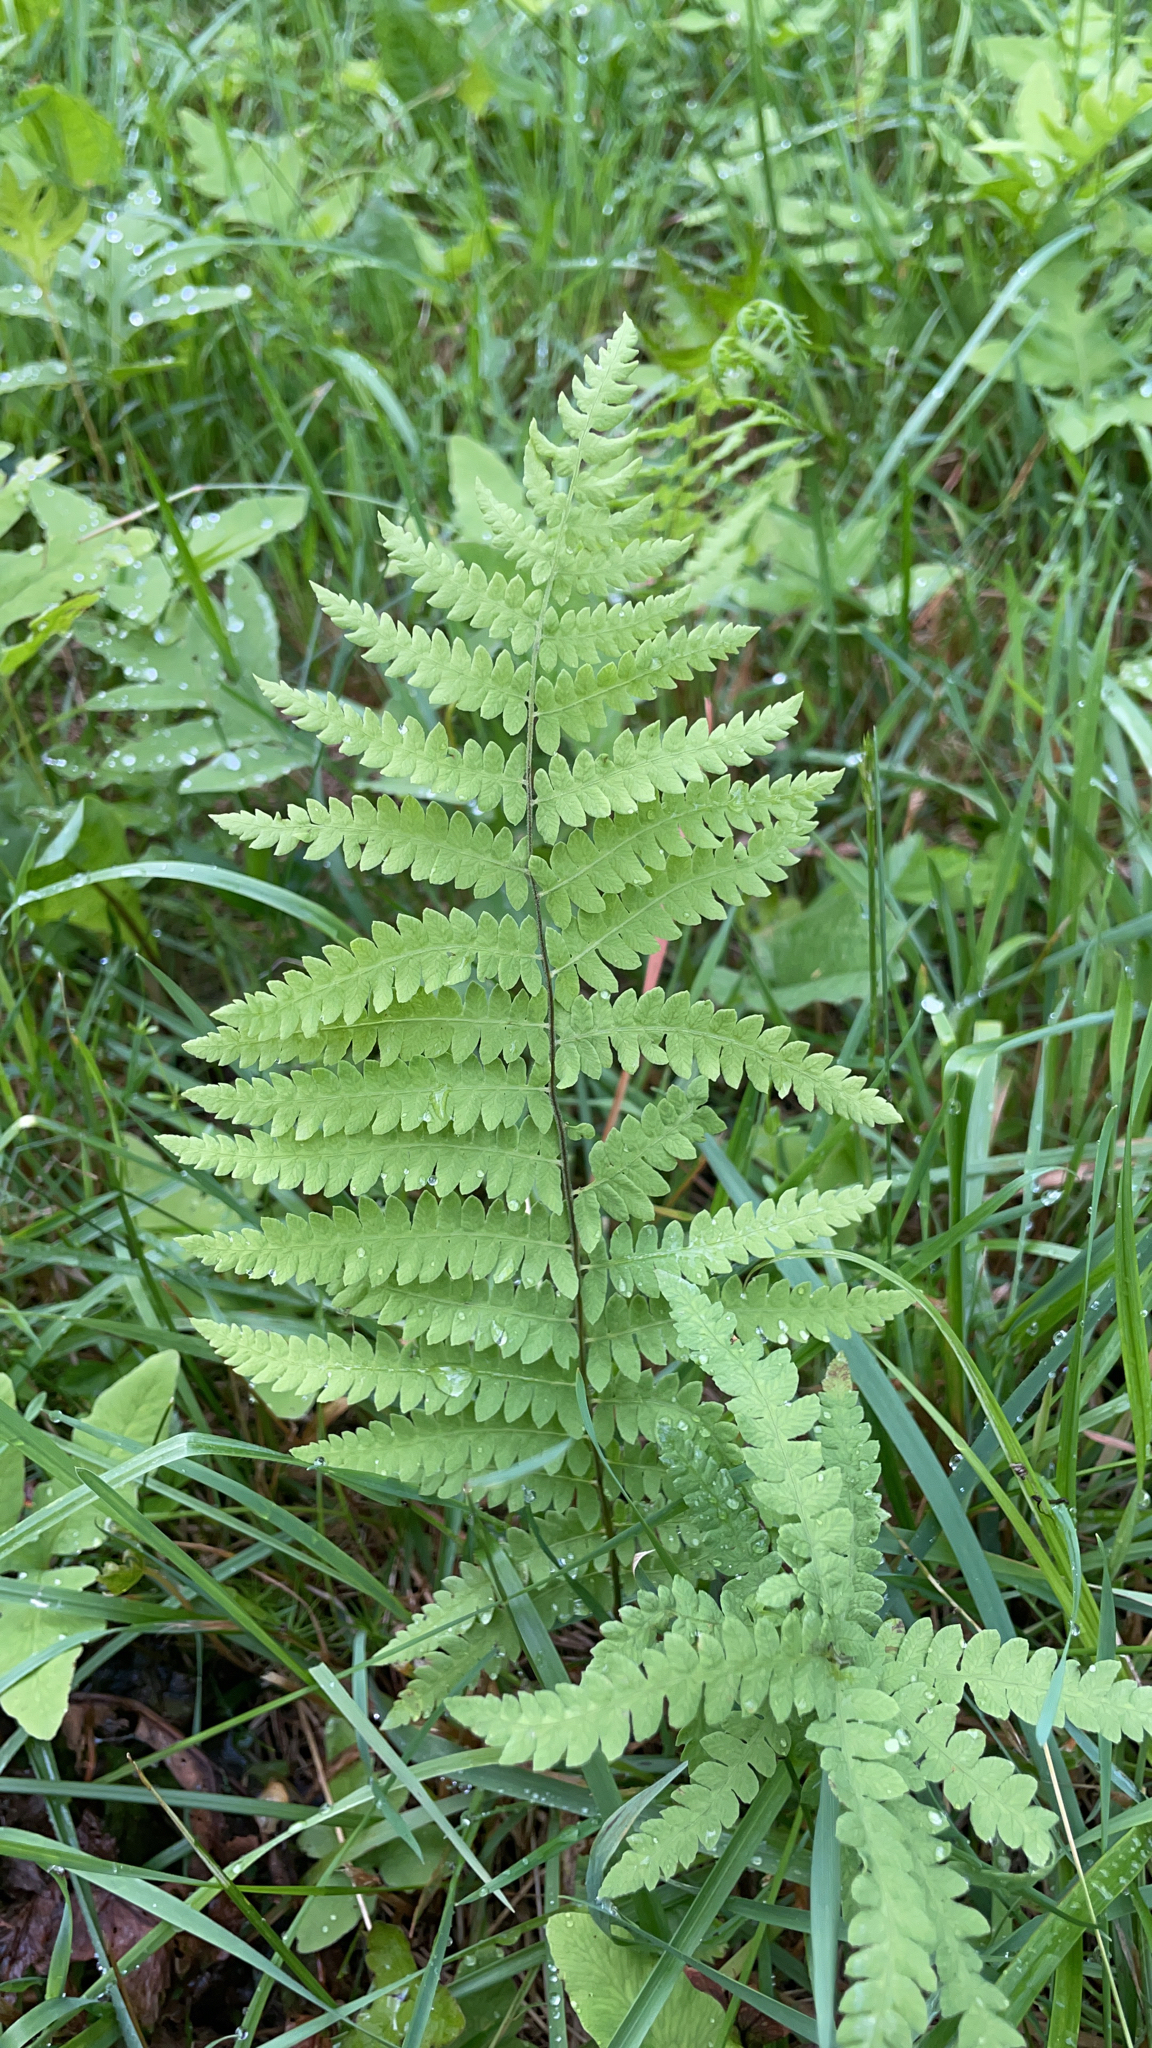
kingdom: Plantae
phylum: Tracheophyta
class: Polypodiopsida
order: Polypodiales
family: Thelypteridaceae
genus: Thelypteris
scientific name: Thelypteris palustris
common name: Marsh fern
